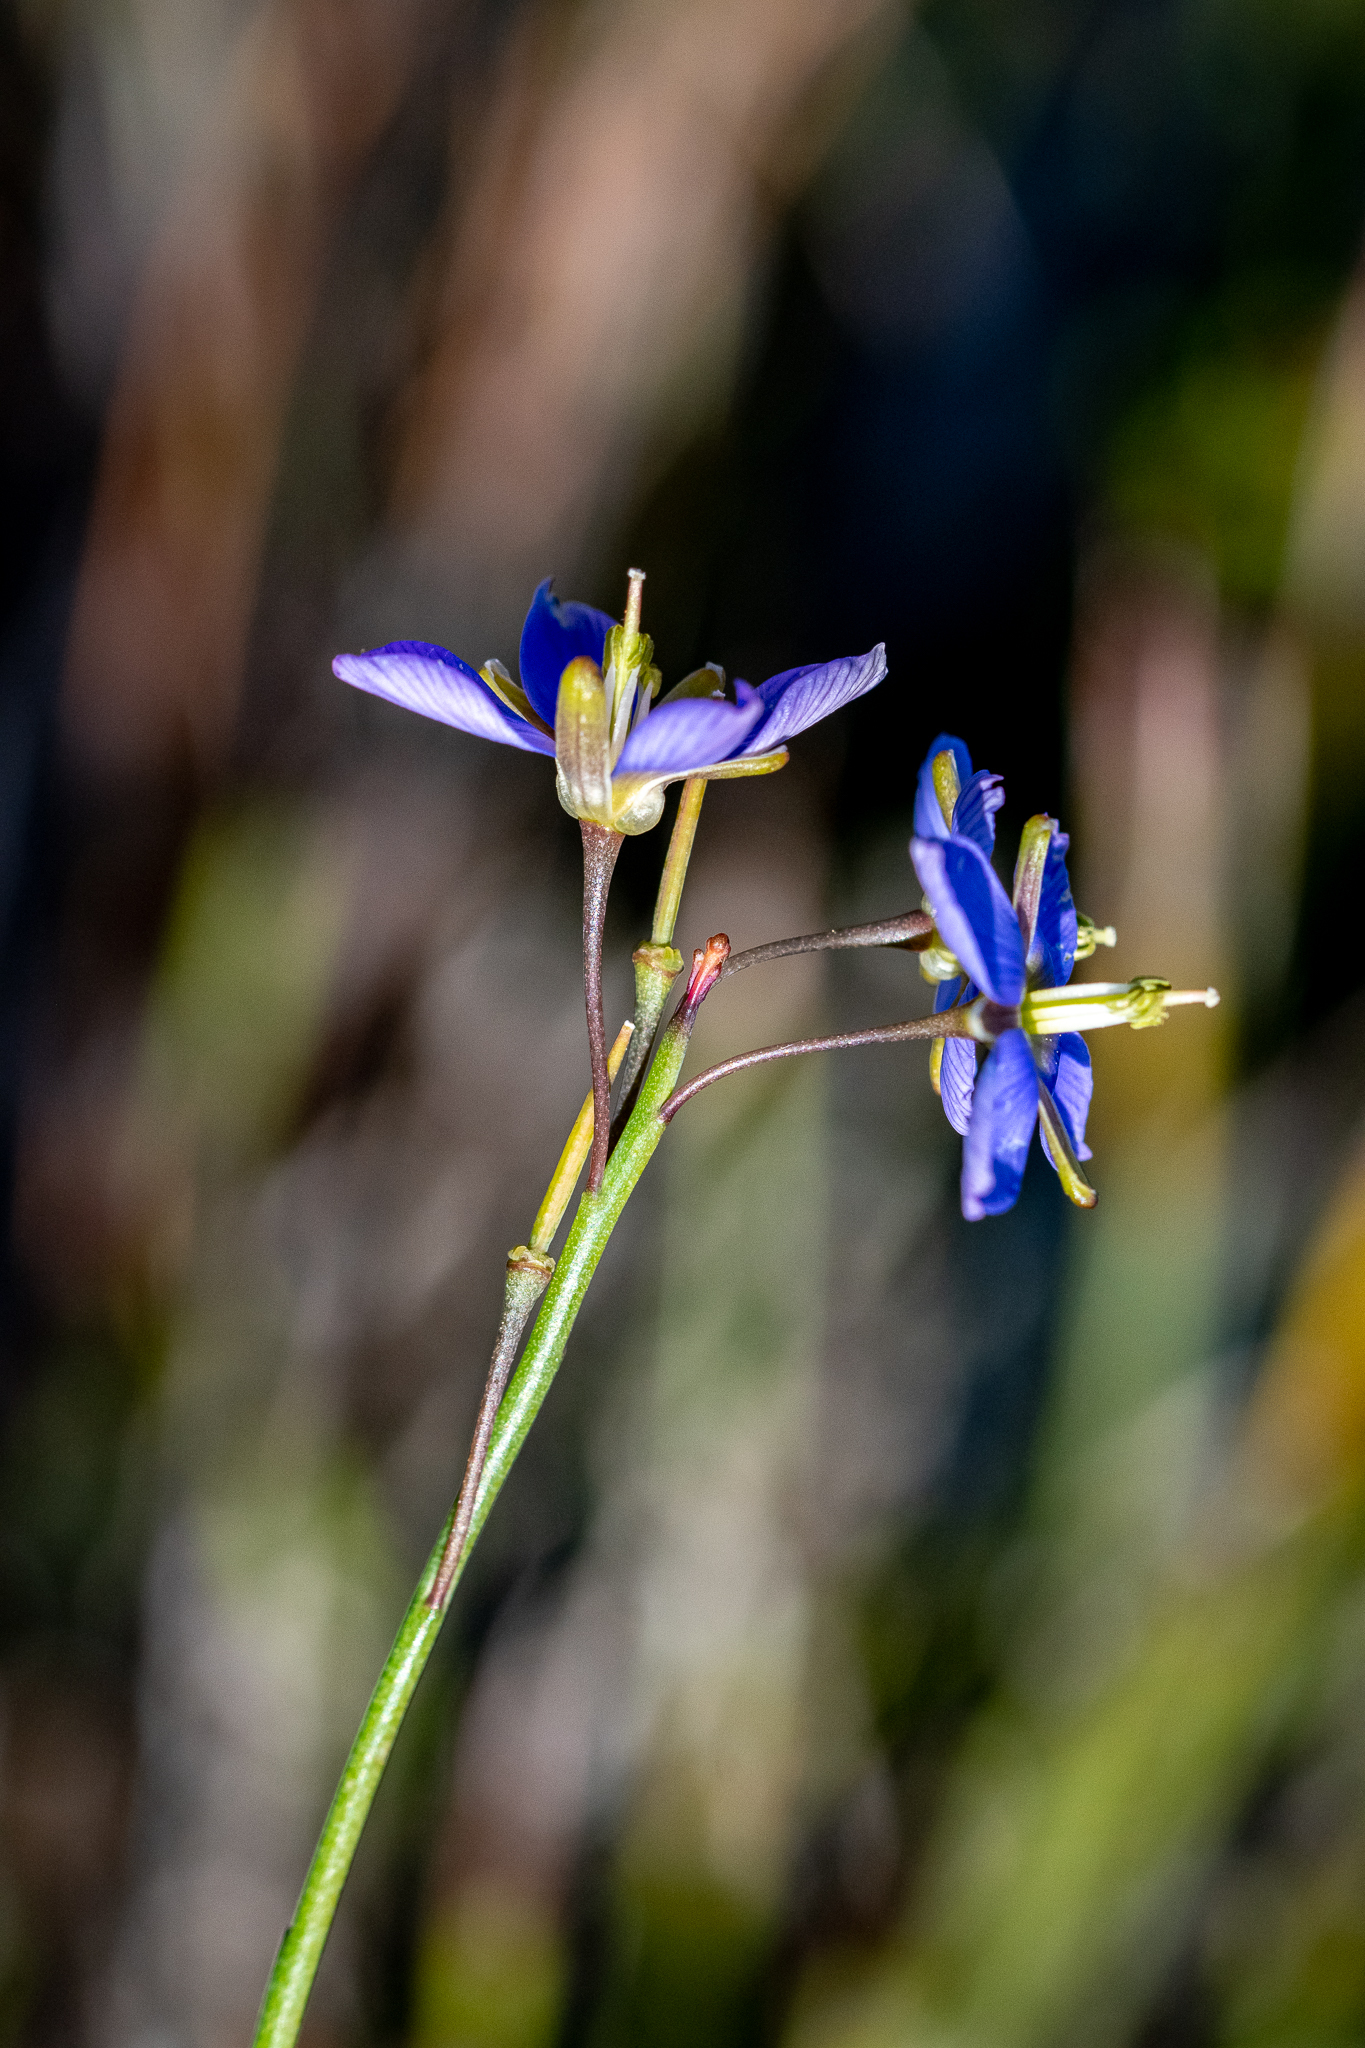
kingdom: Plantae
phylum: Tracheophyta
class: Magnoliopsida
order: Brassicales
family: Brassicaceae
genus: Heliophila
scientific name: Heliophila linearis
